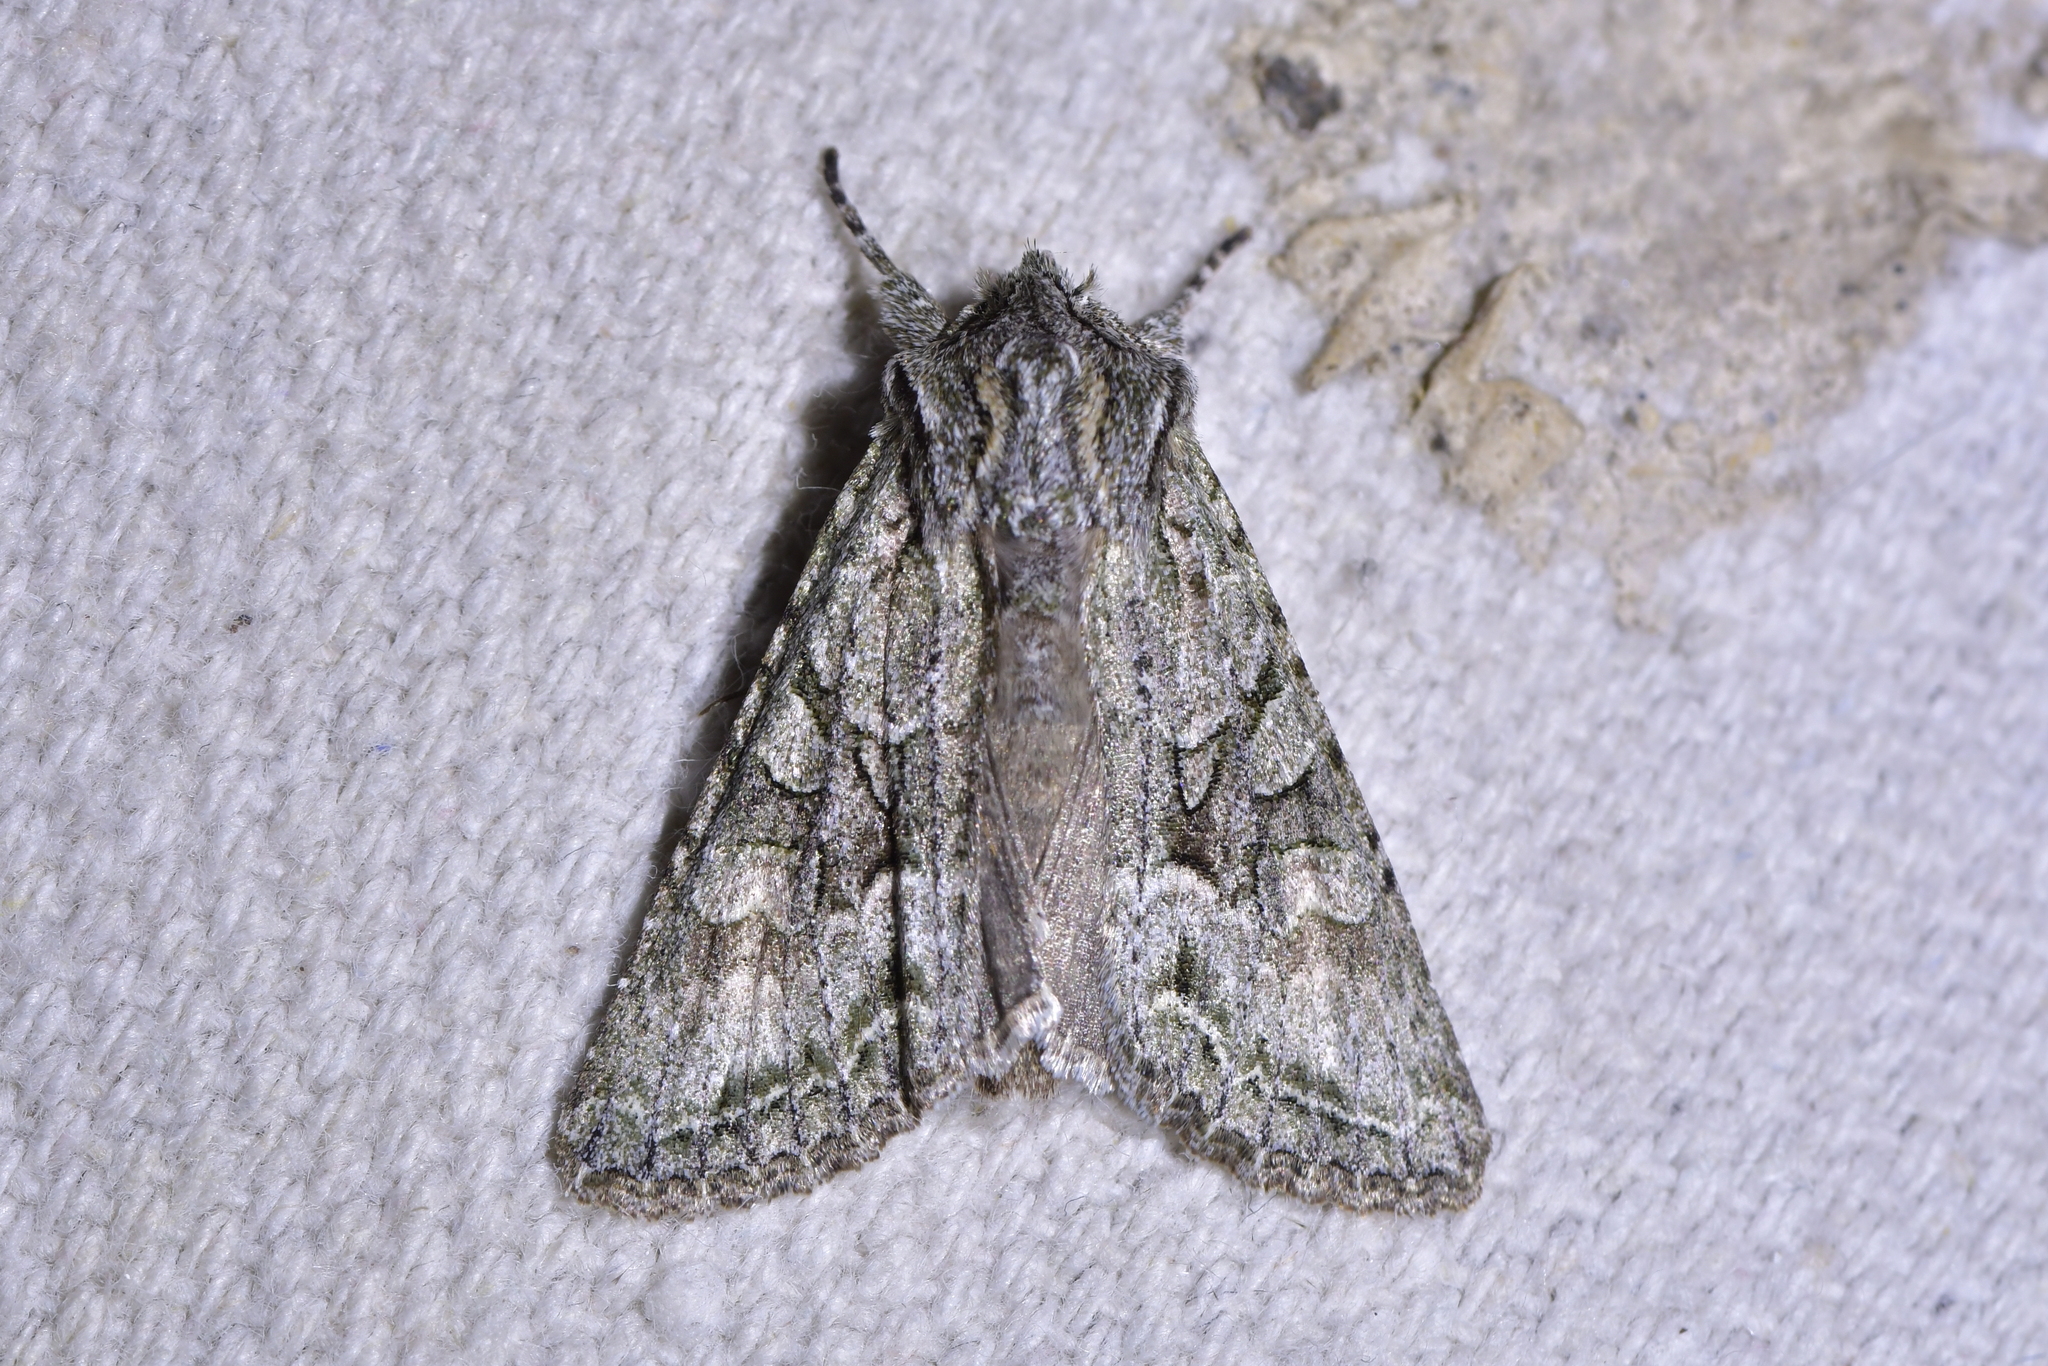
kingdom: Animalia
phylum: Arthropoda
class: Insecta
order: Lepidoptera
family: Noctuidae
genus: Ichneutica
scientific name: Ichneutica mutans
